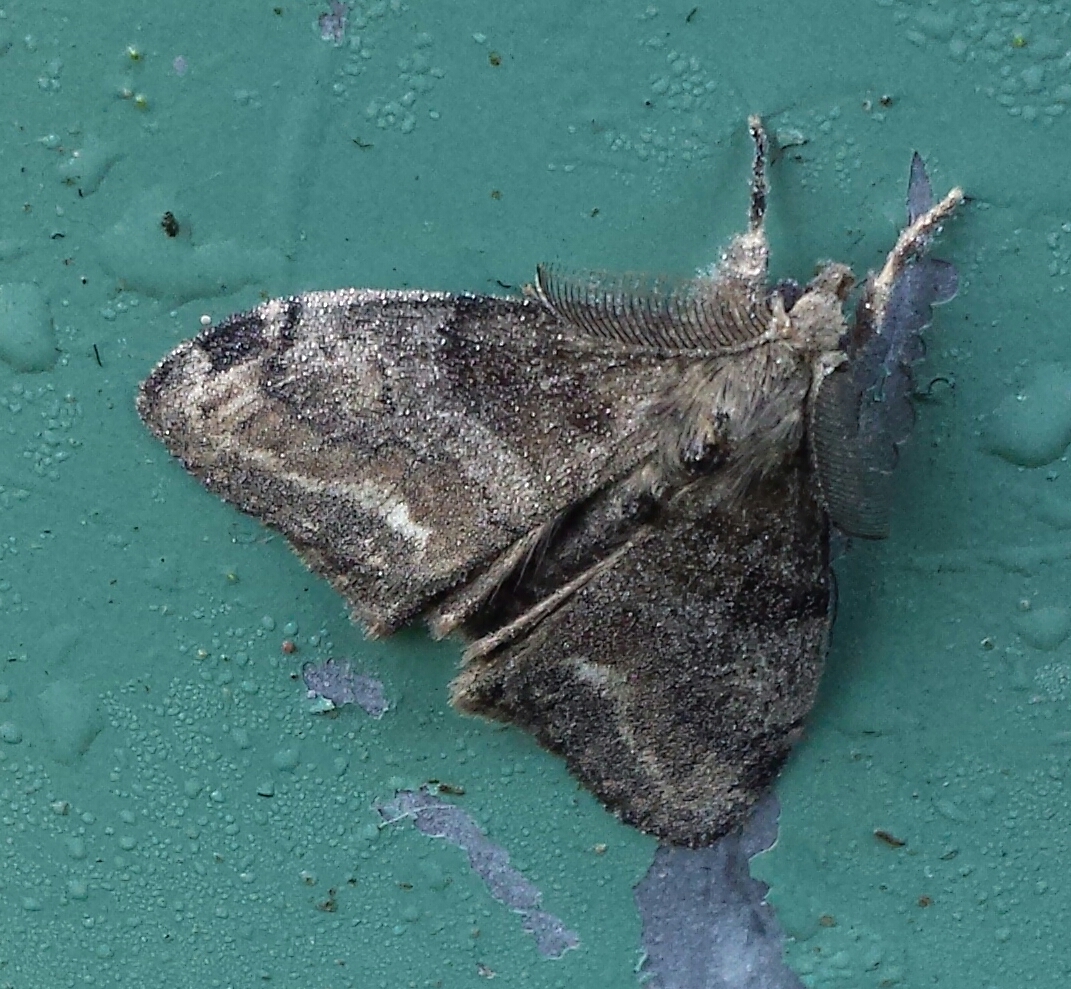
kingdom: Animalia
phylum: Arthropoda
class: Insecta
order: Lepidoptera
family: Erebidae
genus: Orgyia
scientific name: Orgyia leucostigma
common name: White-marked tussock moth
